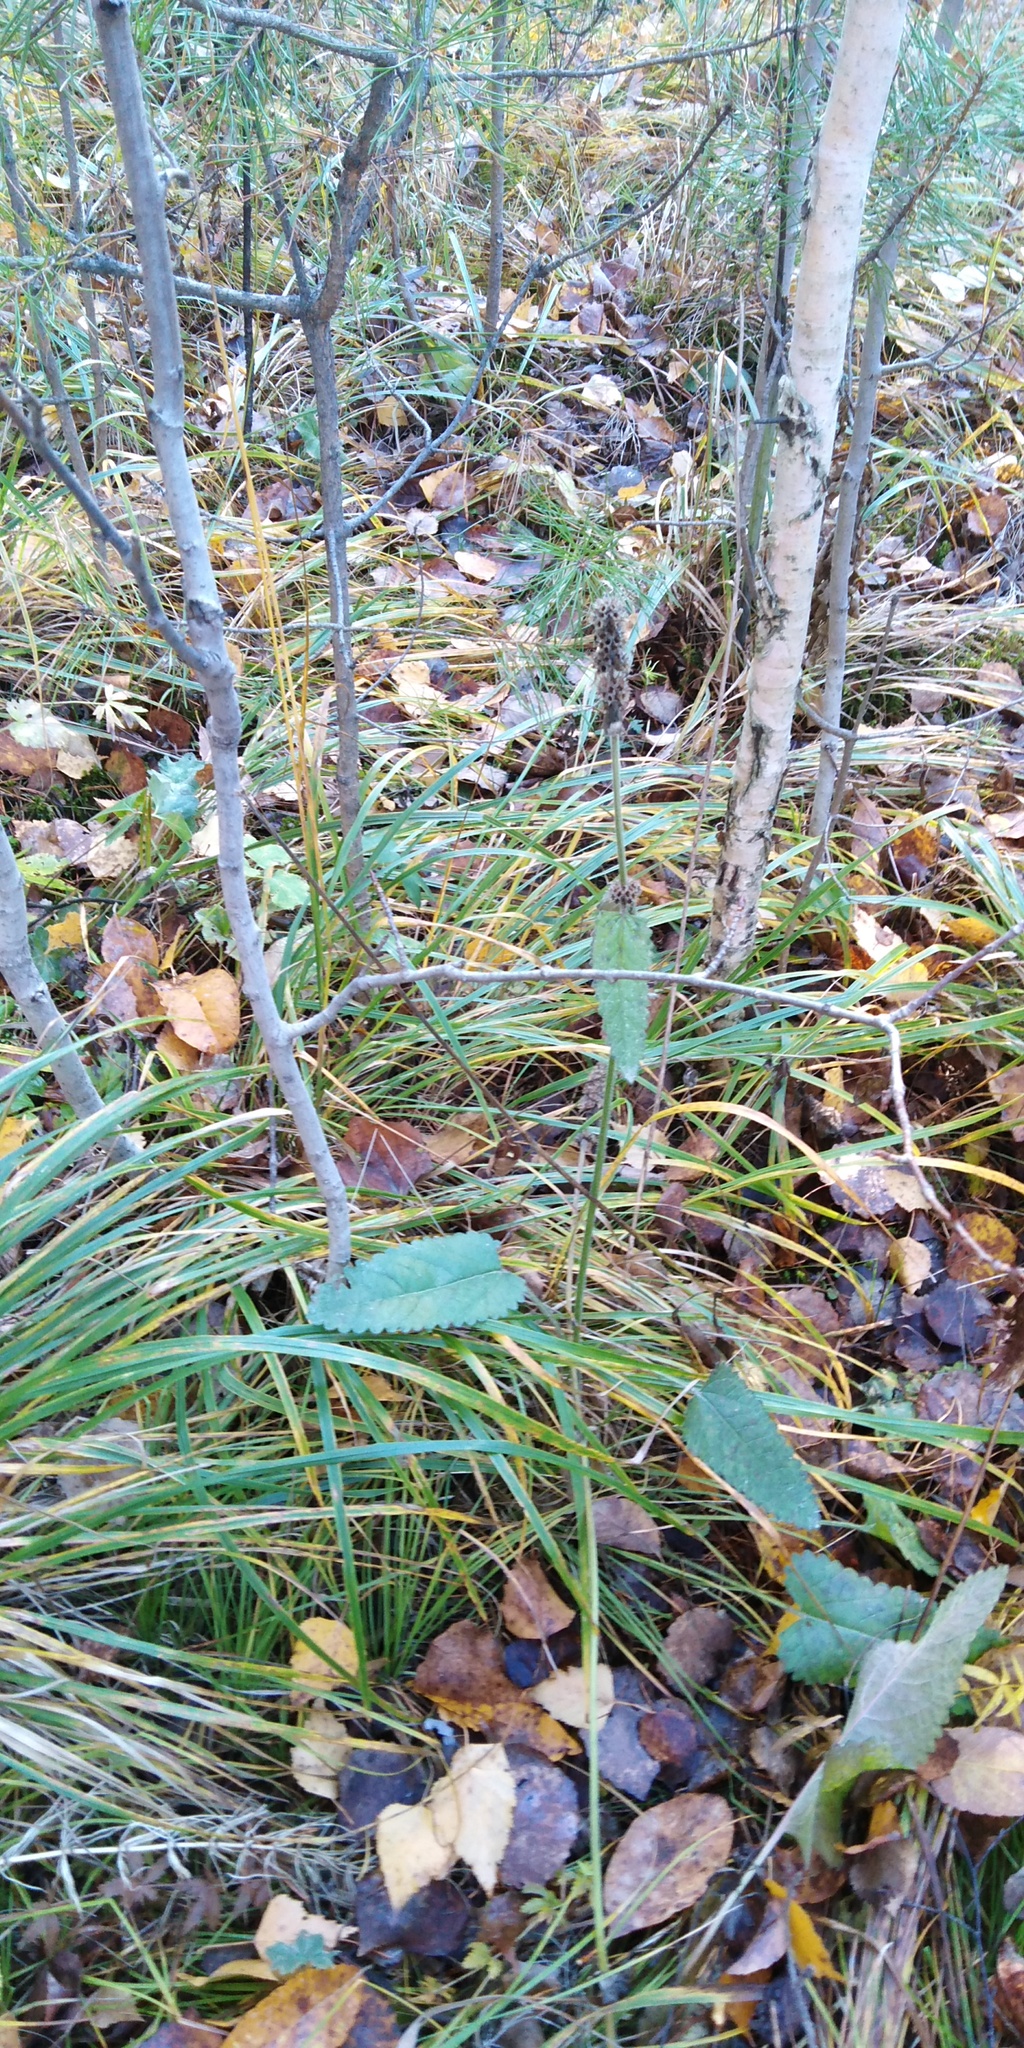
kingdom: Plantae
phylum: Tracheophyta
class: Magnoliopsida
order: Lamiales
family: Lamiaceae
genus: Betonica
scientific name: Betonica officinalis
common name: Bishop's-wort
